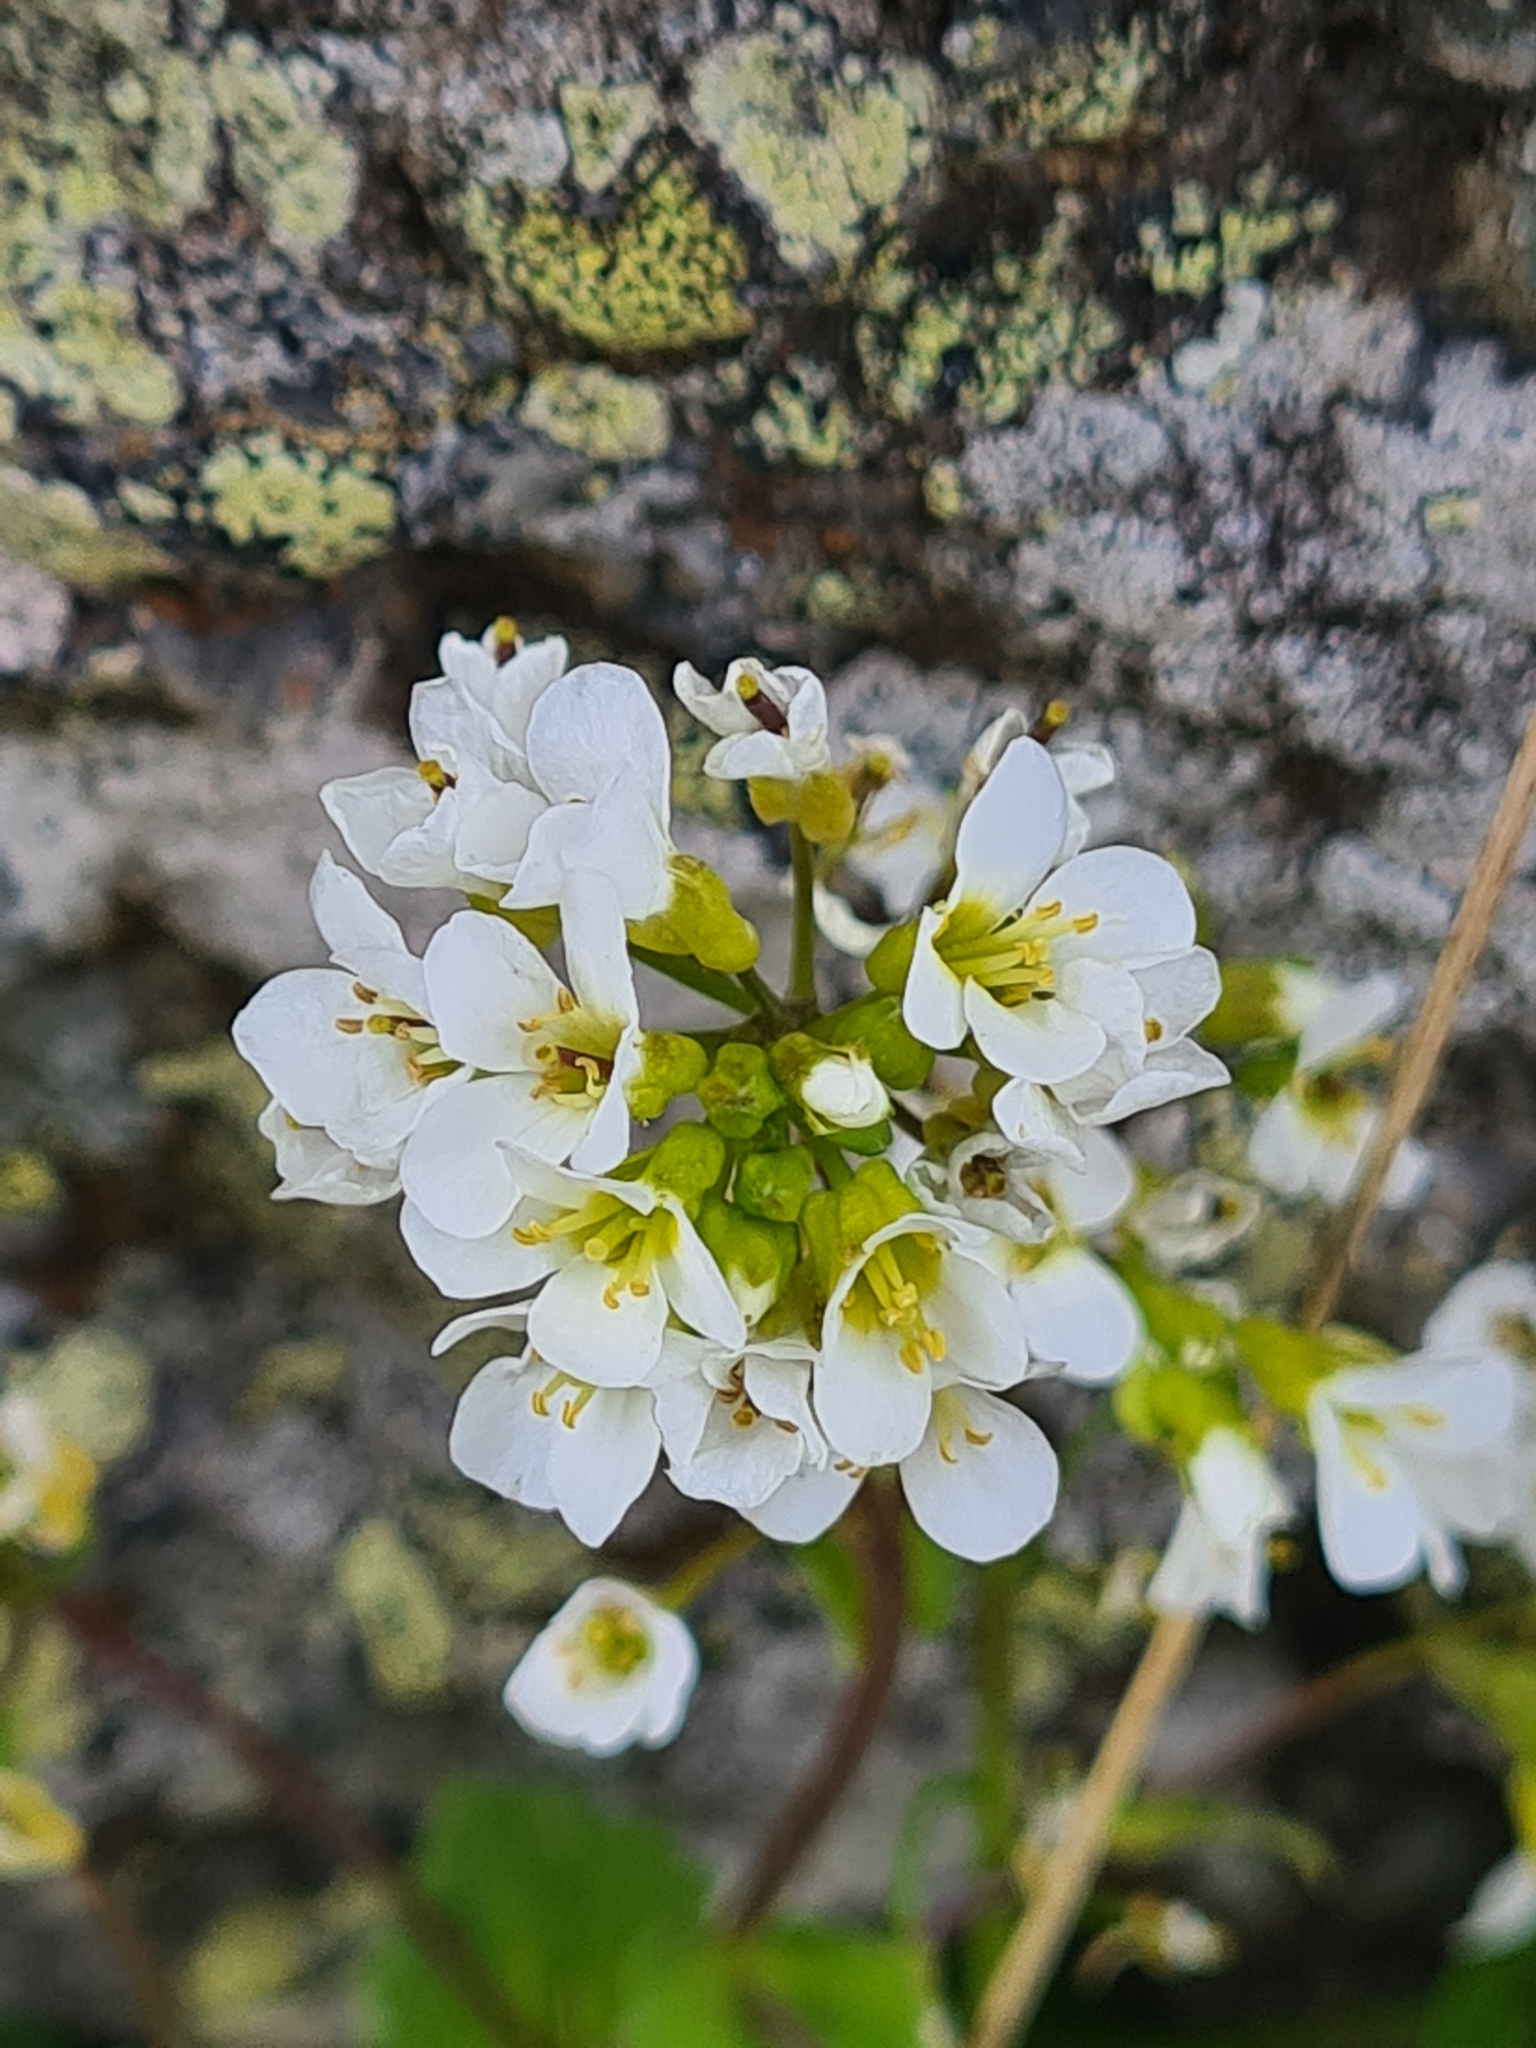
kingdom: Plantae
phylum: Tracheophyta
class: Magnoliopsida
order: Brassicales
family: Brassicaceae
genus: Arabis
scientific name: Arabis alpina
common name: Alpine rock-cress
